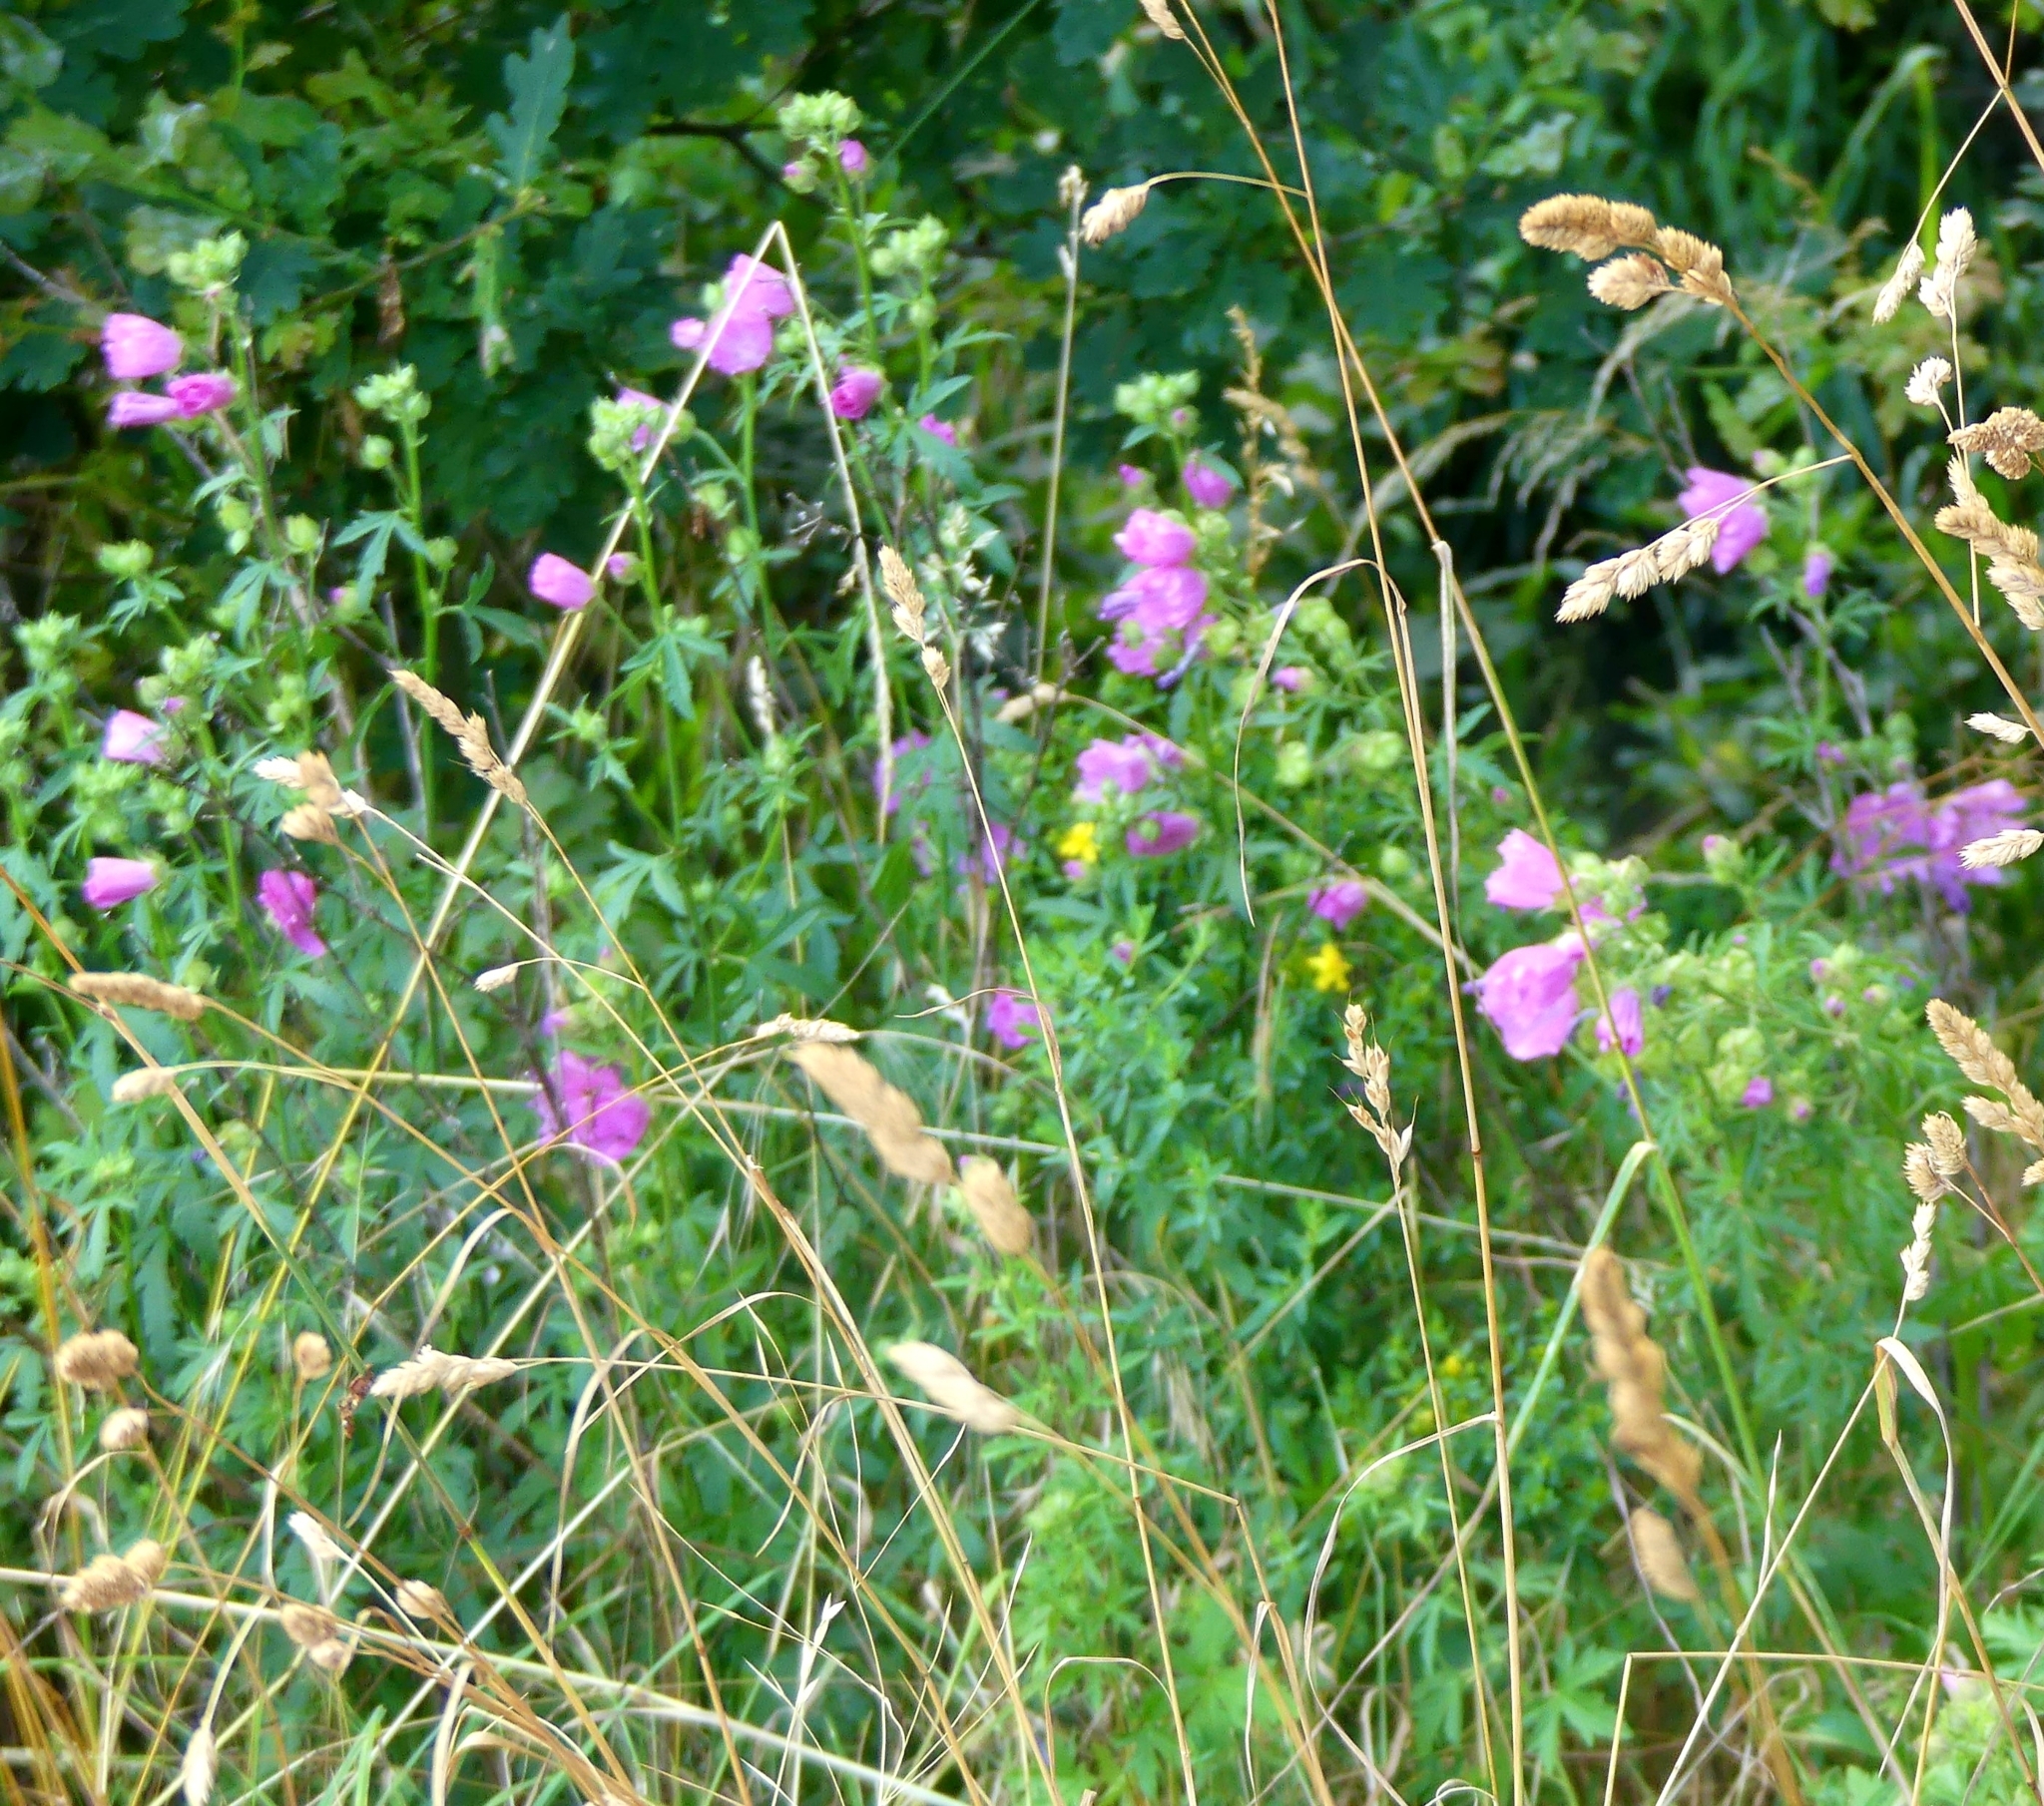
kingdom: Plantae
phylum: Tracheophyta
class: Magnoliopsida
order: Malvales
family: Malvaceae
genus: Malva
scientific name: Malva alcea
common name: Greater musk-mallow
